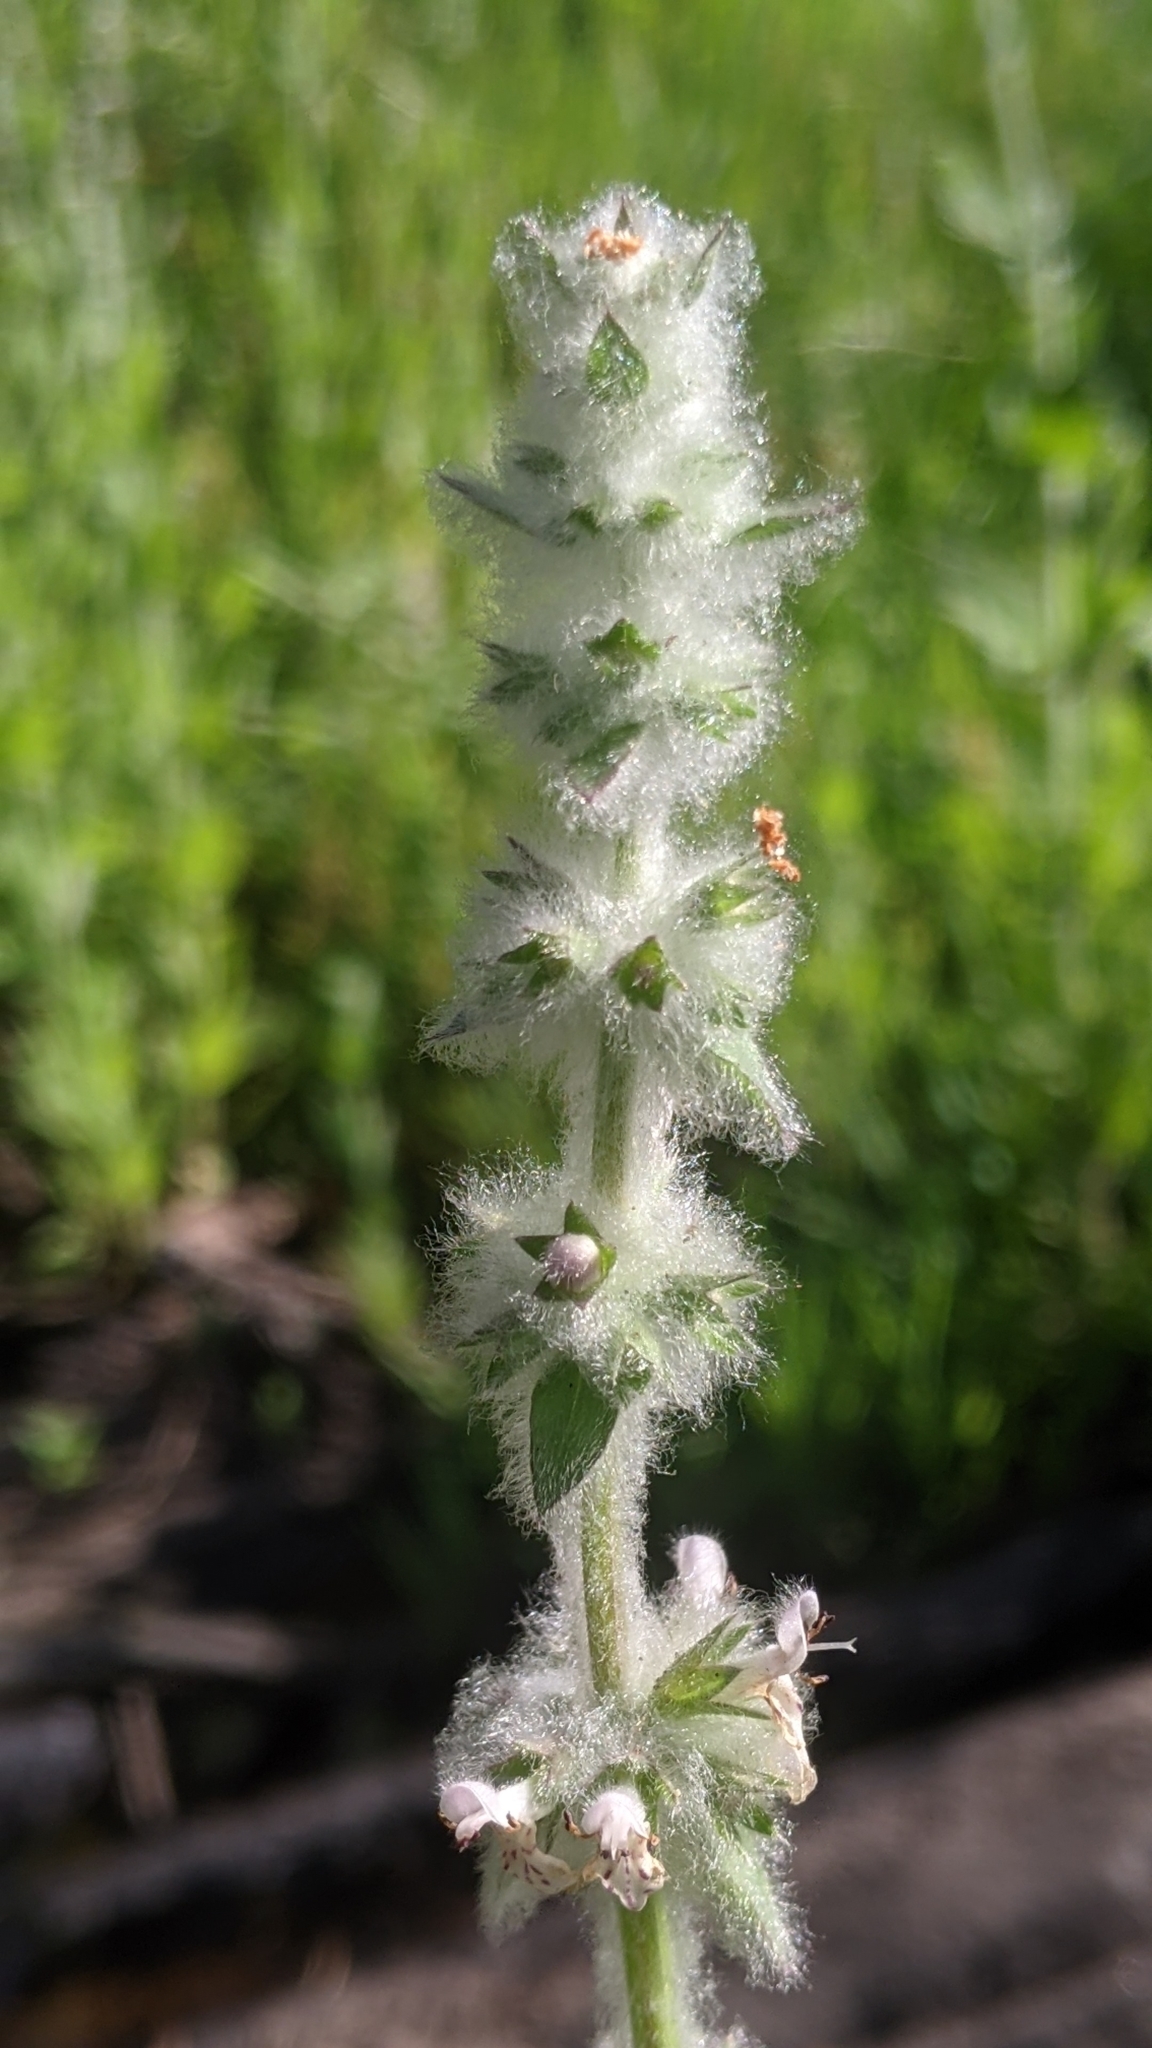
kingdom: Plantae
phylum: Tracheophyta
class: Magnoliopsida
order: Lamiales
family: Lamiaceae
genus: Stachys
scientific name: Stachys albens
